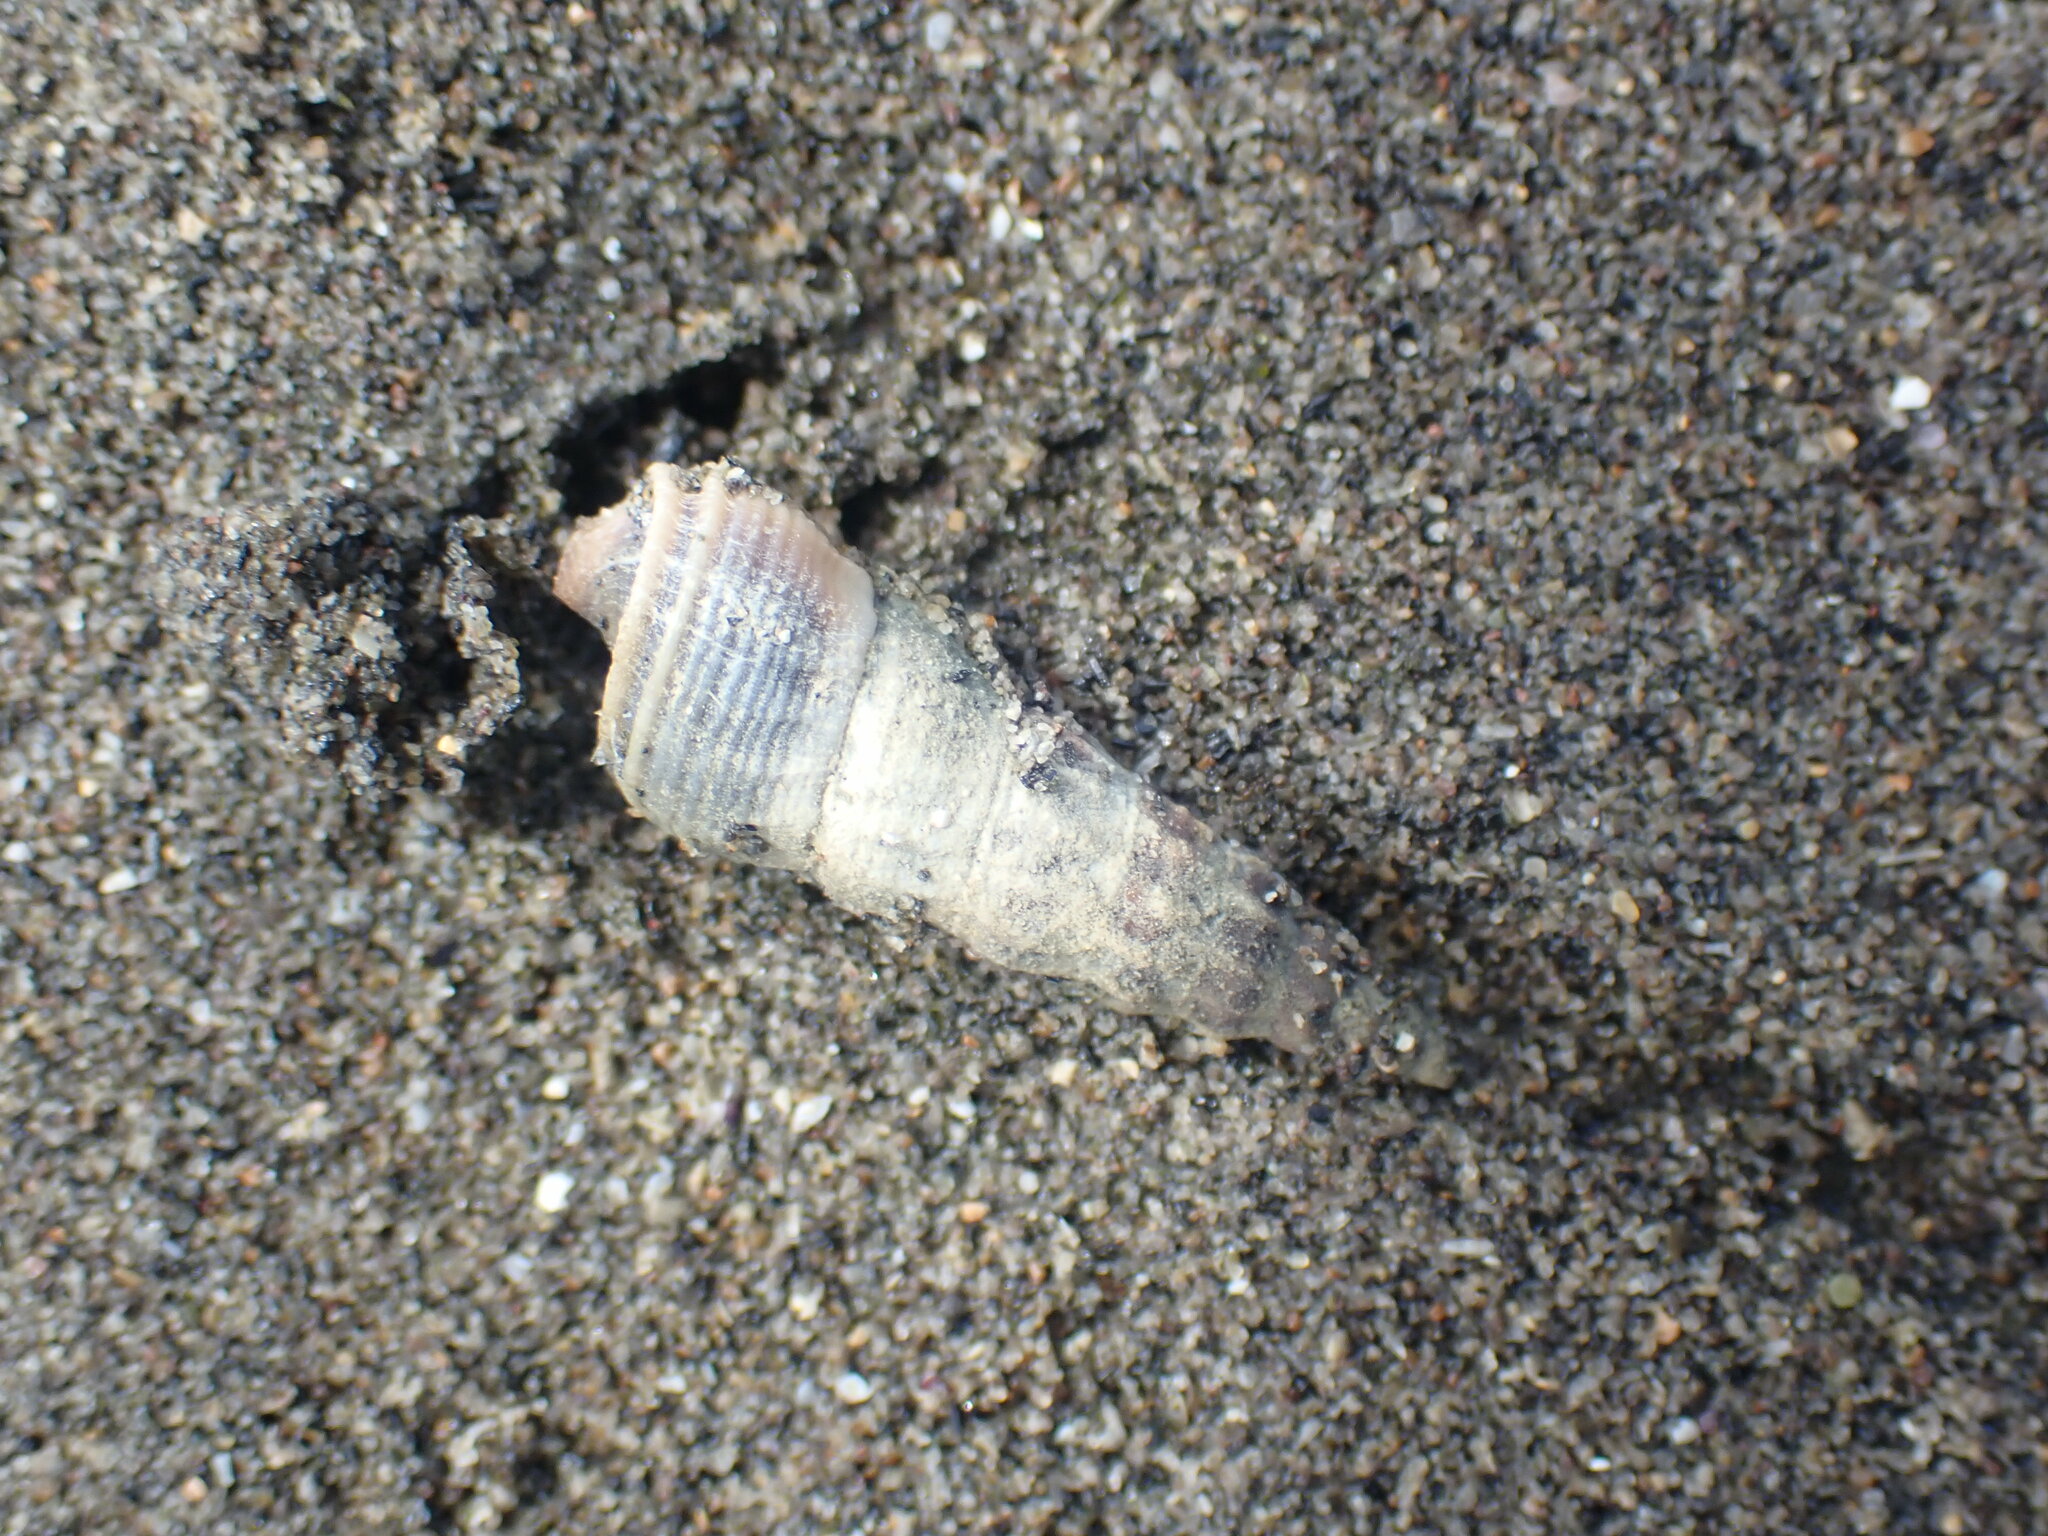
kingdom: Animalia
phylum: Mollusca
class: Gastropoda
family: Batillariidae
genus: Zeacumantus
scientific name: Zeacumantus lutulentus
